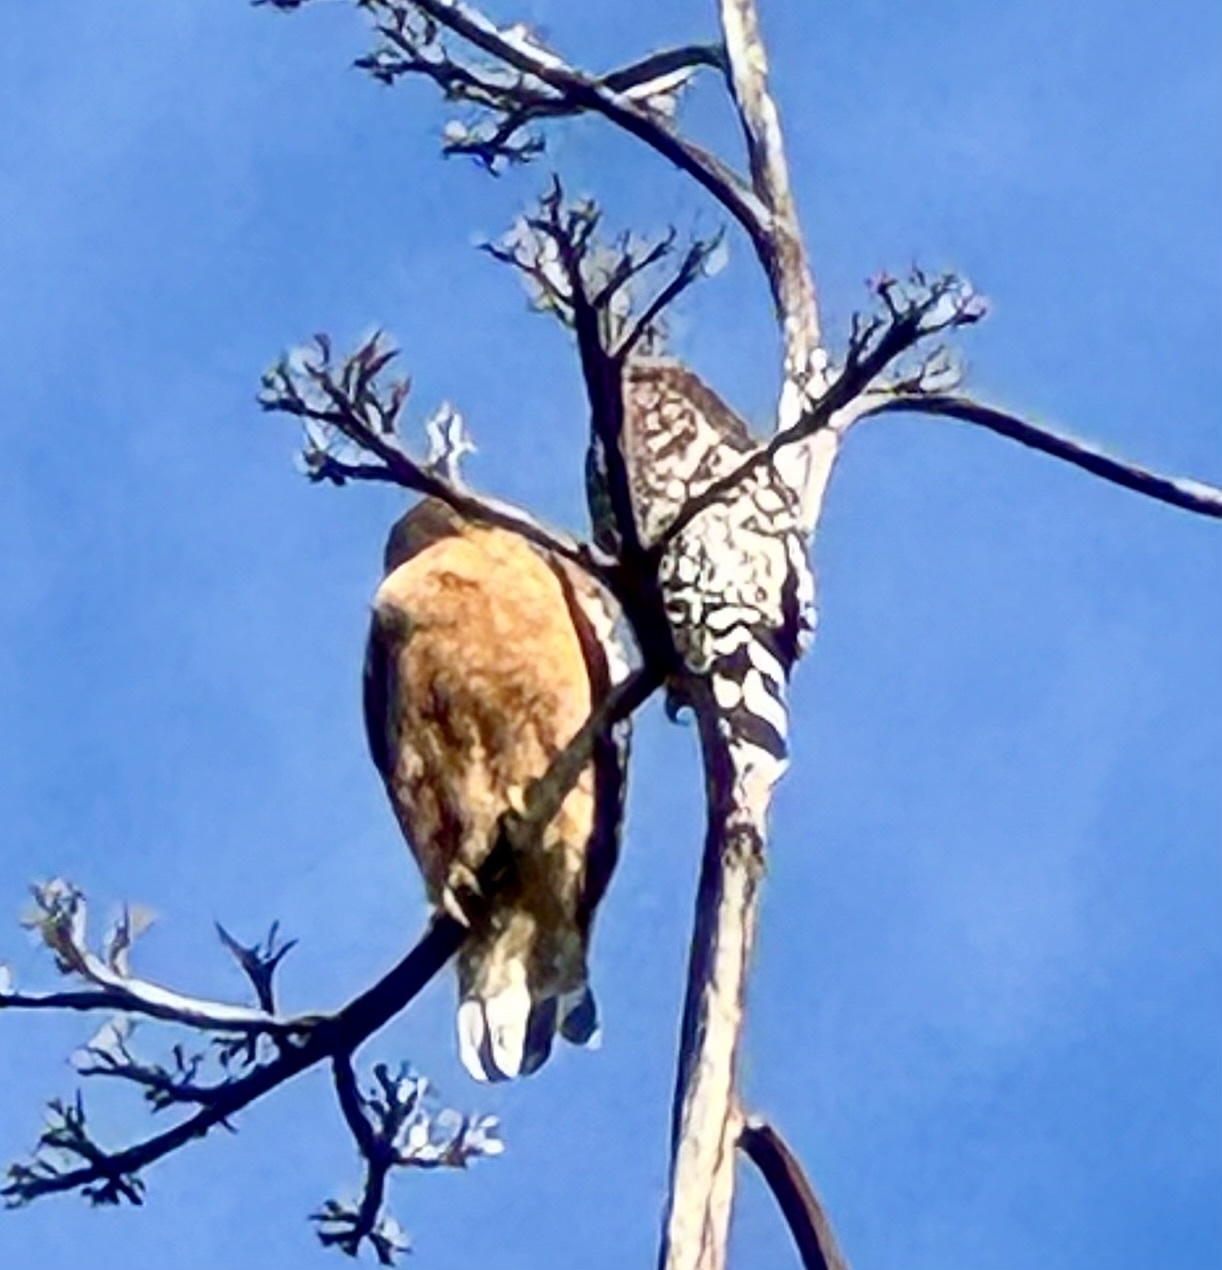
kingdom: Animalia
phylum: Chordata
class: Aves
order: Accipitriformes
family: Accipitridae
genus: Buteo
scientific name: Buteo lineatus
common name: Red-shouldered hawk
